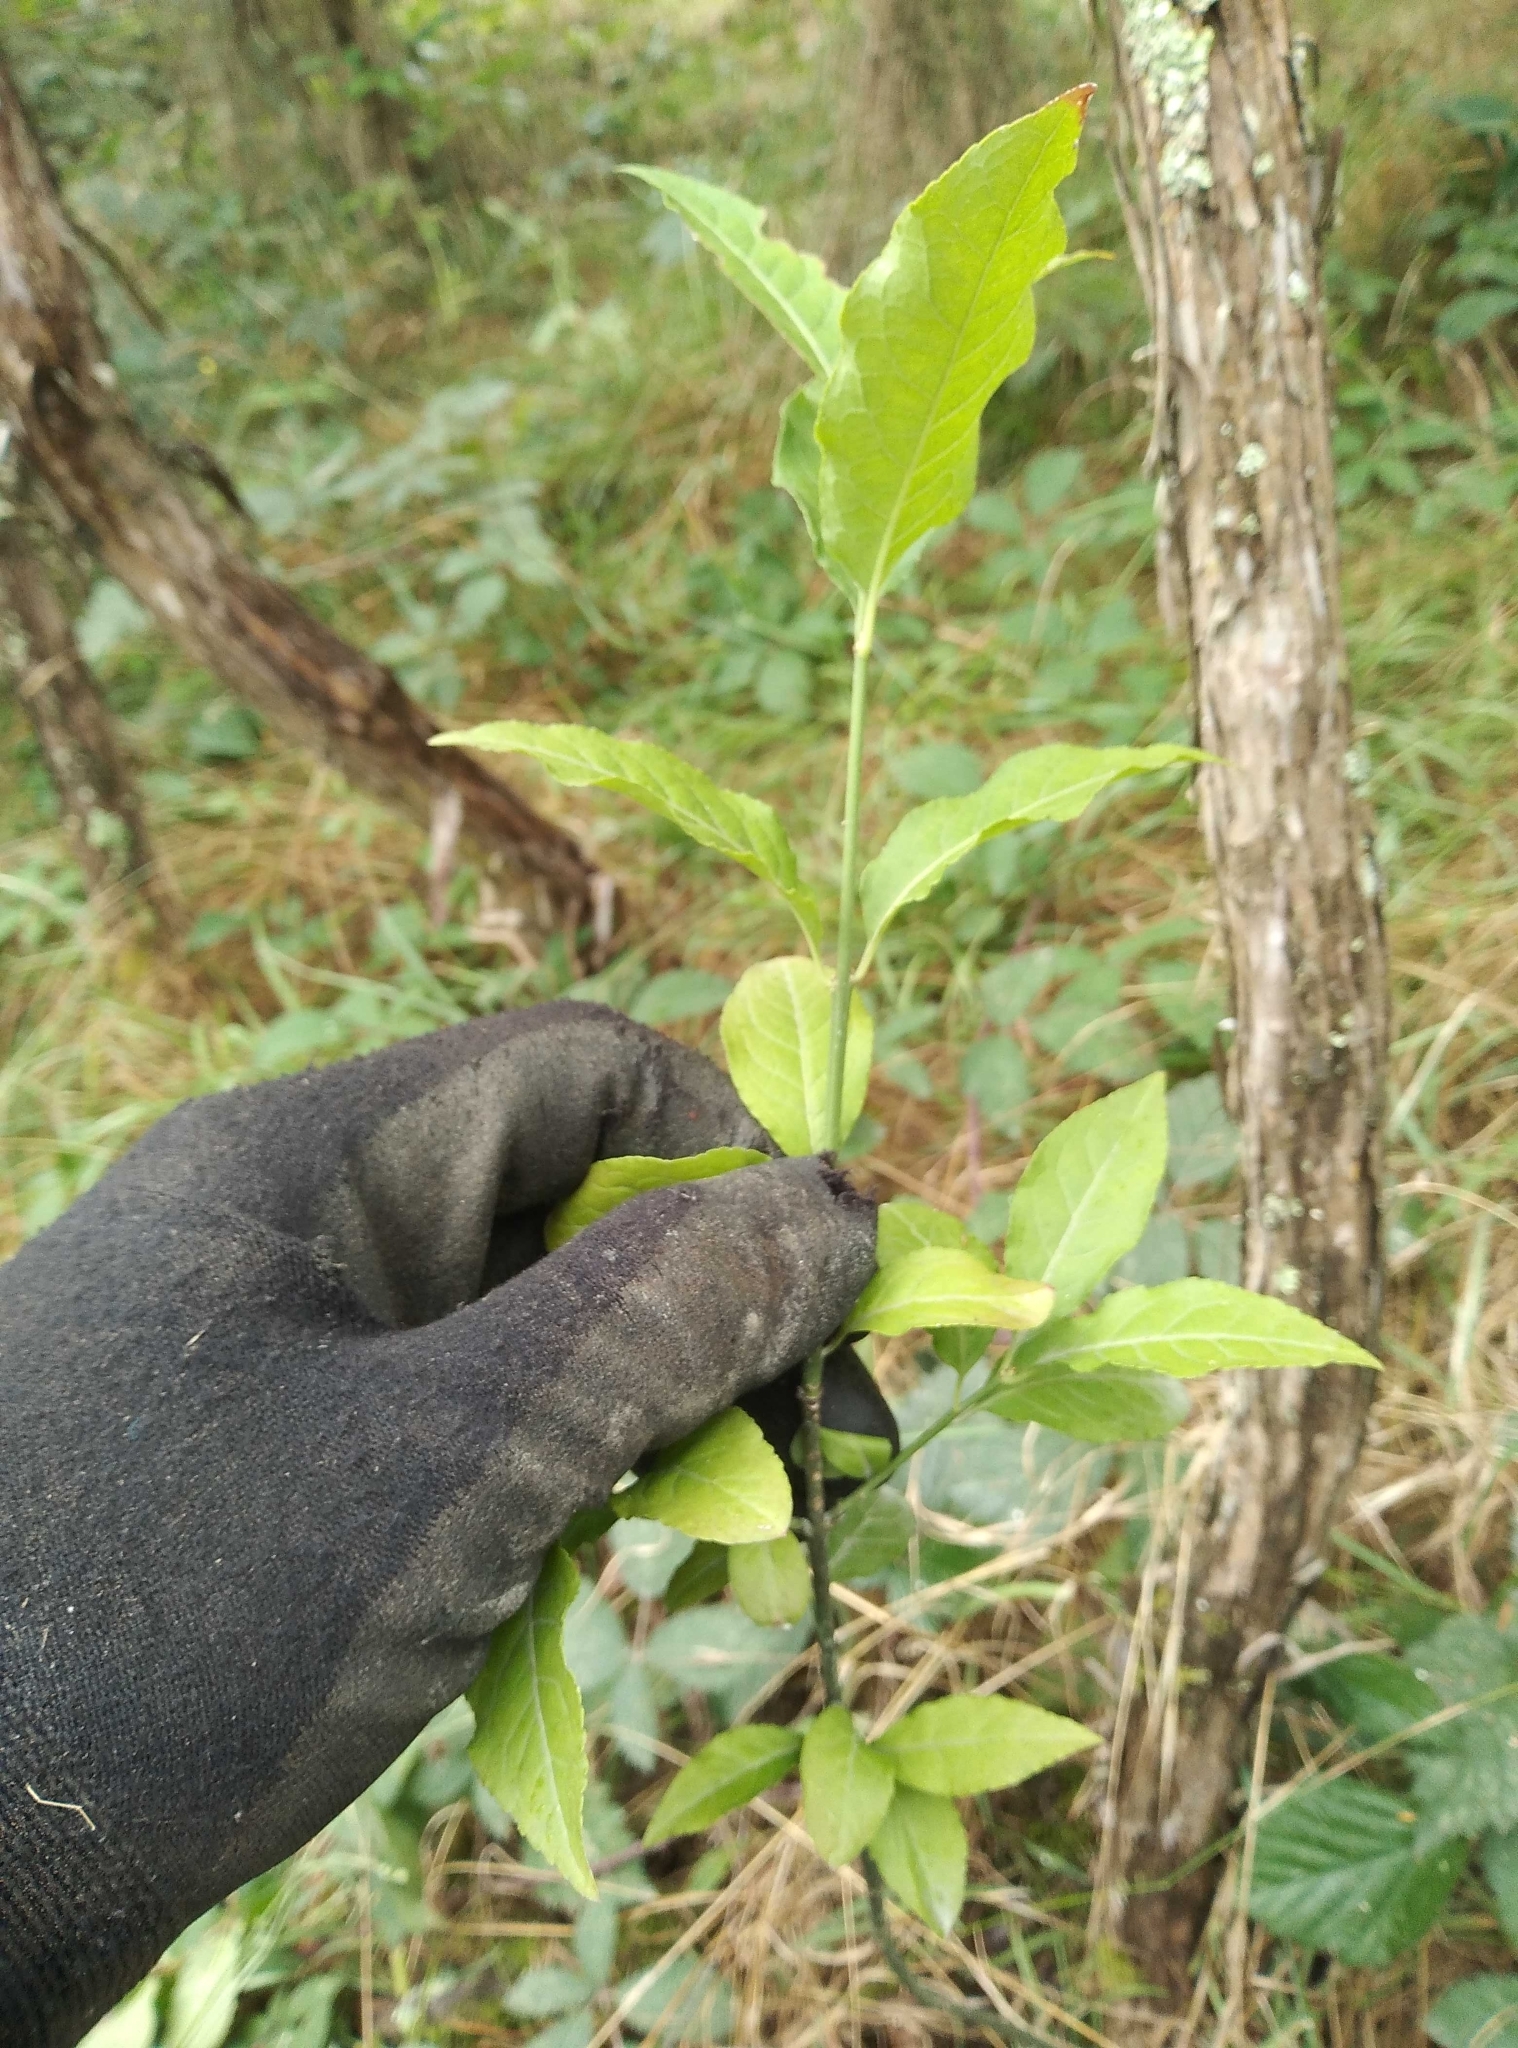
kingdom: Plantae
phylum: Tracheophyta
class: Magnoliopsida
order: Celastrales
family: Celastraceae
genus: Euonymus
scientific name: Euonymus europaeus
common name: Spindle
